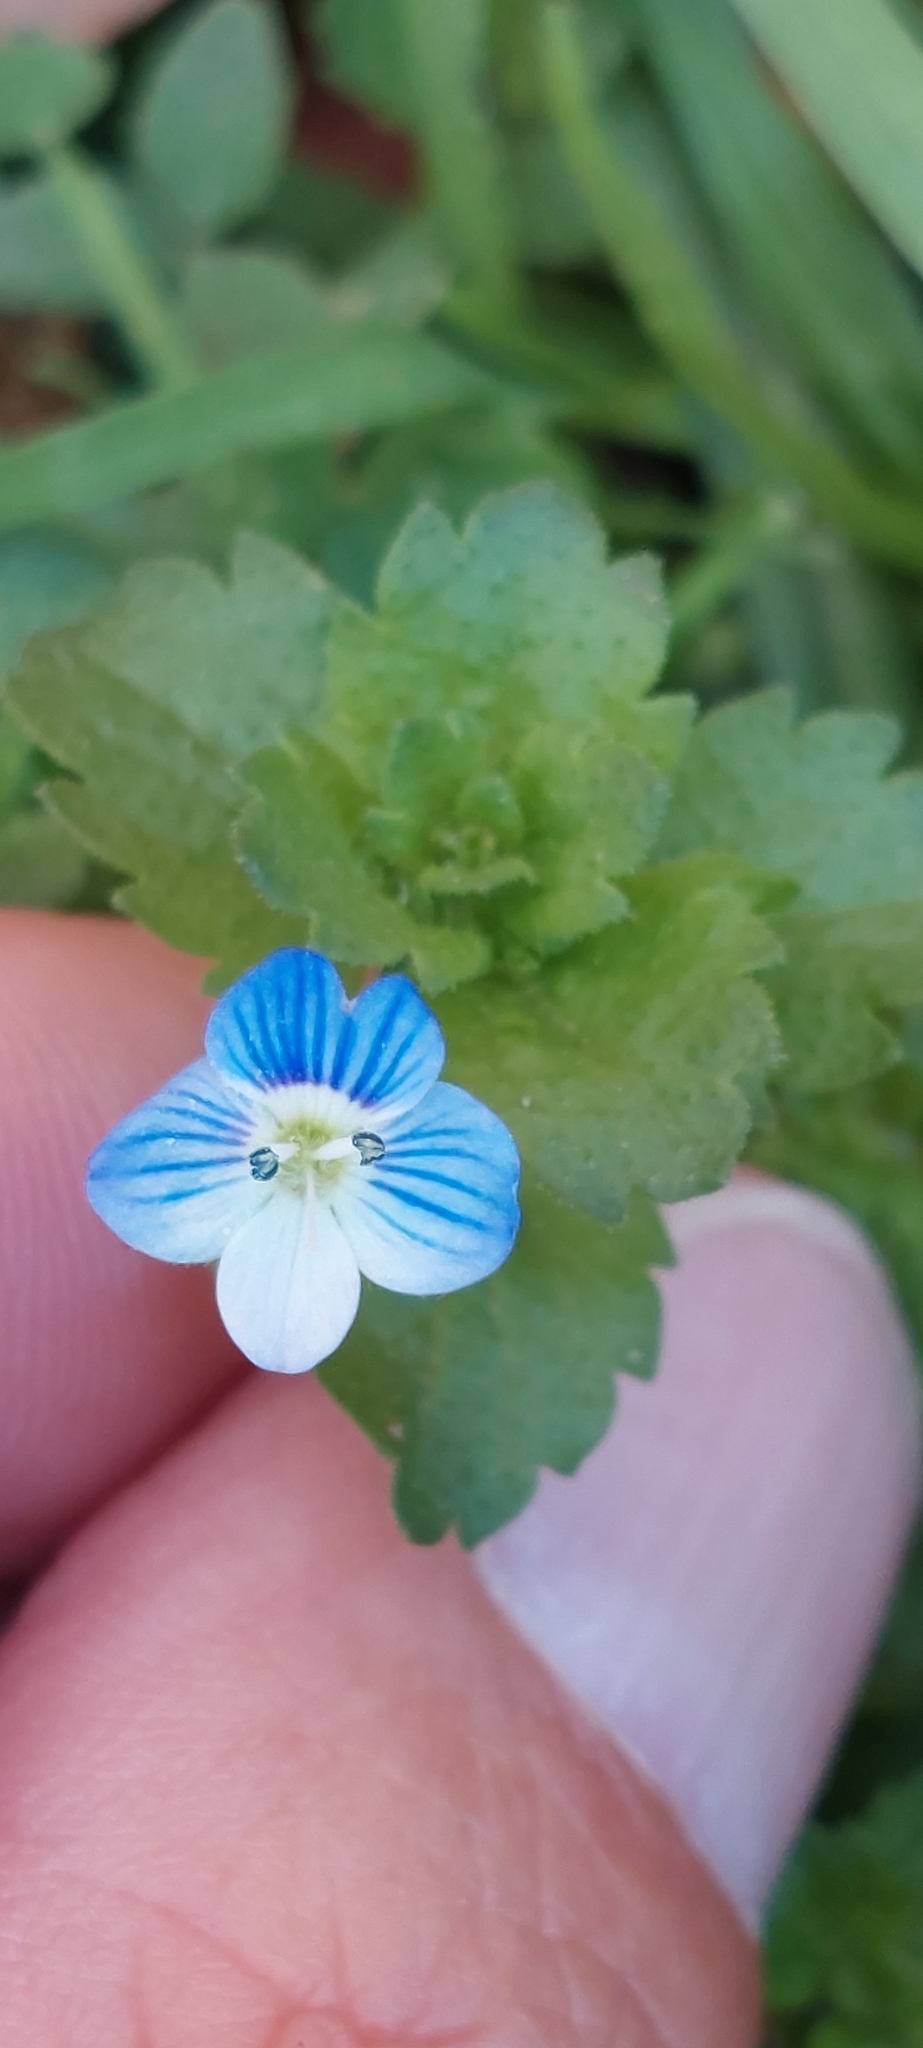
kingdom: Plantae
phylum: Tracheophyta
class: Magnoliopsida
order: Lamiales
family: Plantaginaceae
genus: Veronica
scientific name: Veronica persica
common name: Common field-speedwell
